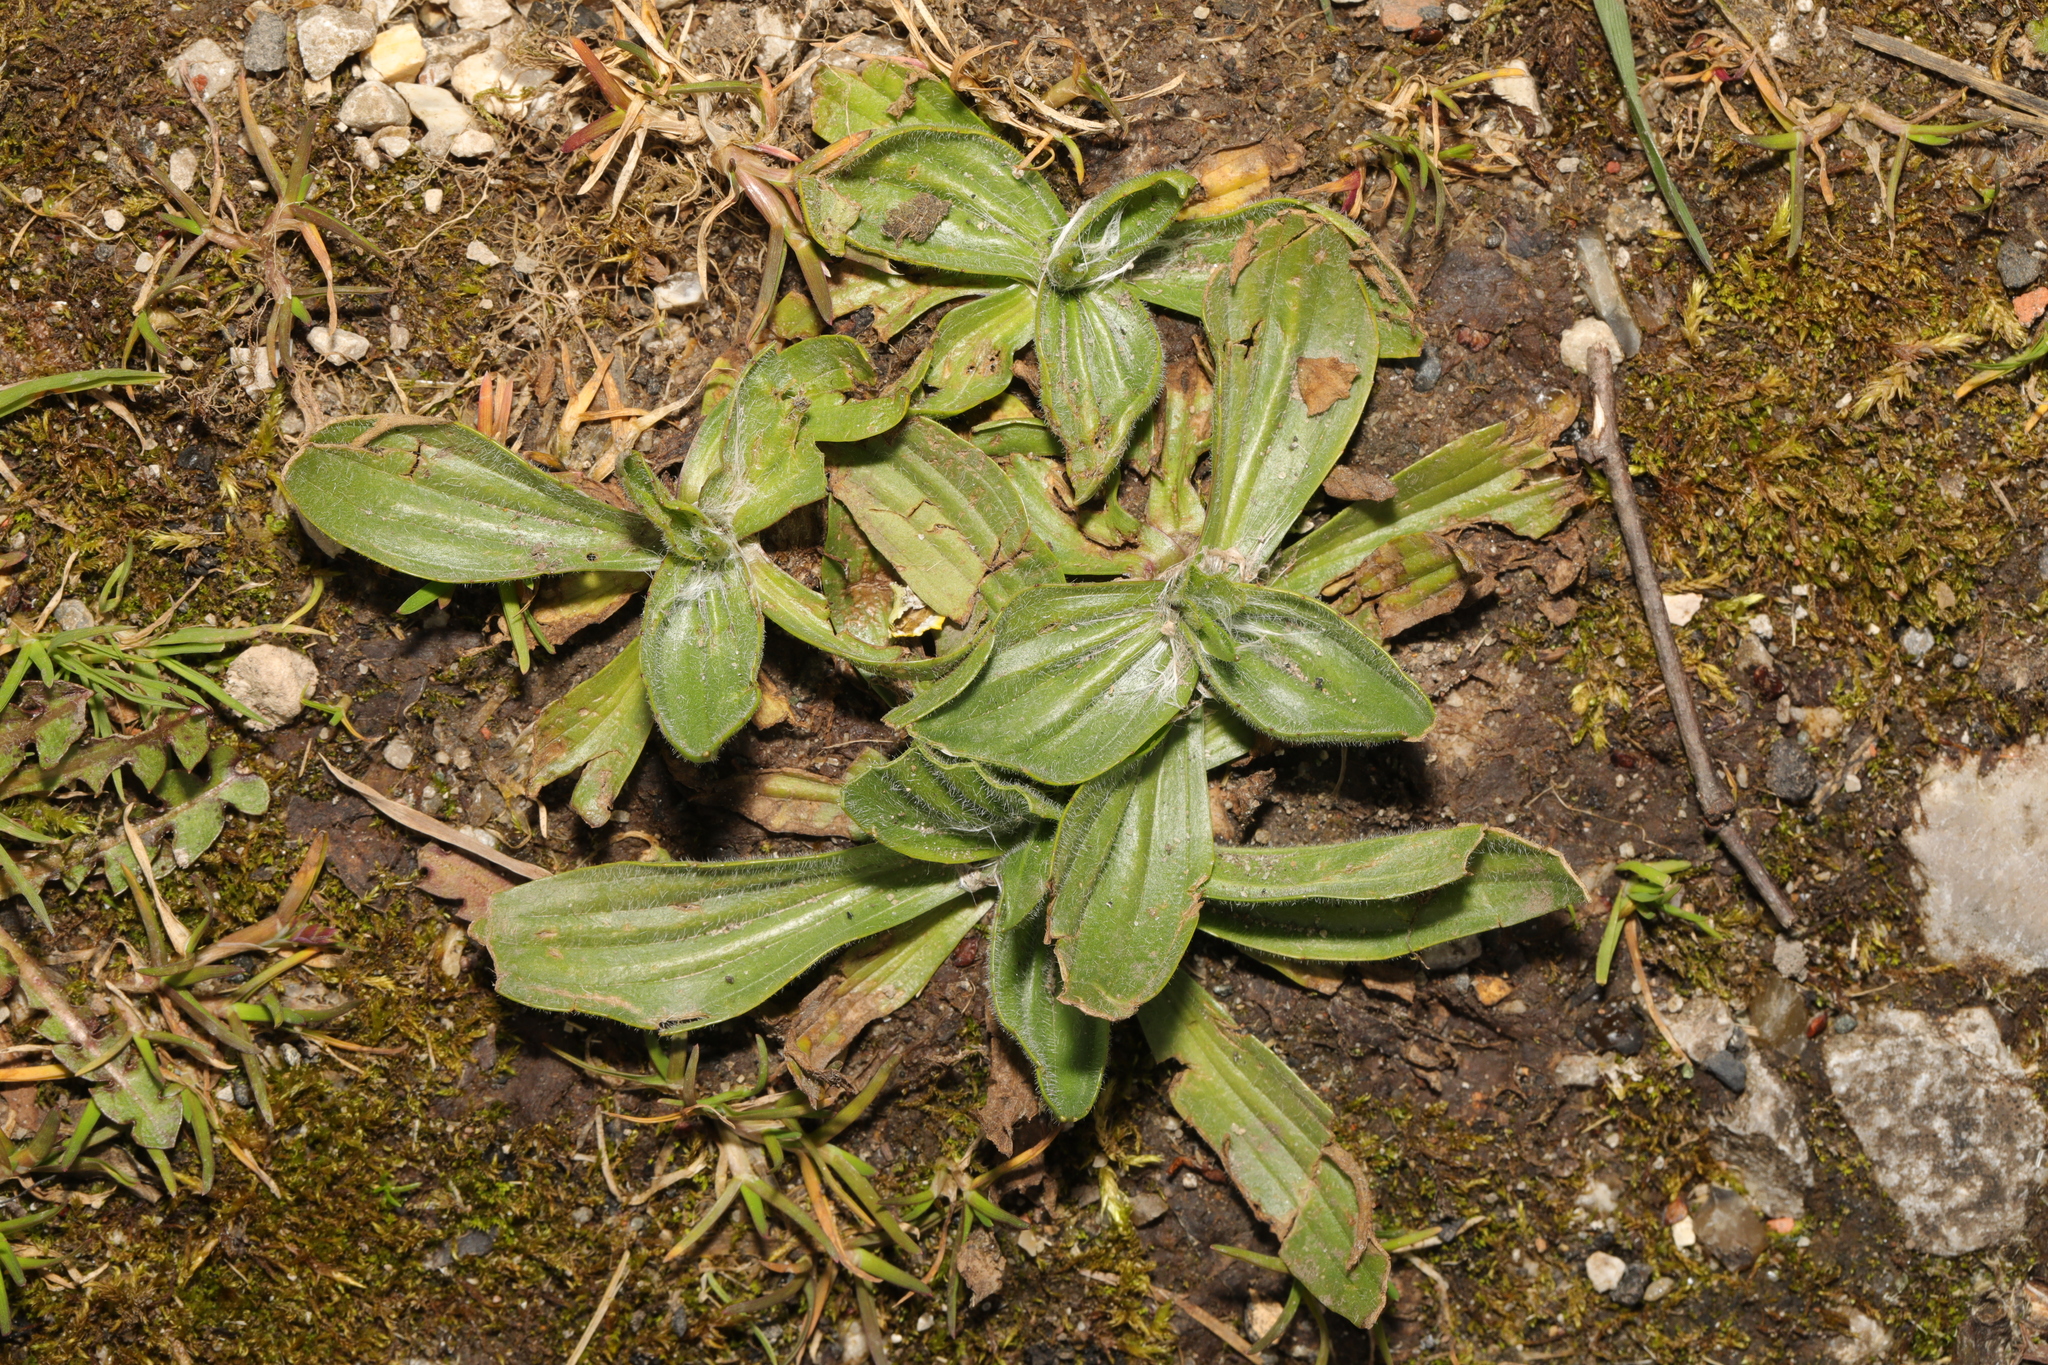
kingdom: Plantae
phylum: Tracheophyta
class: Magnoliopsida
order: Lamiales
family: Plantaginaceae
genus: Plantago
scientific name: Plantago lanceolata
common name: Ribwort plantain
